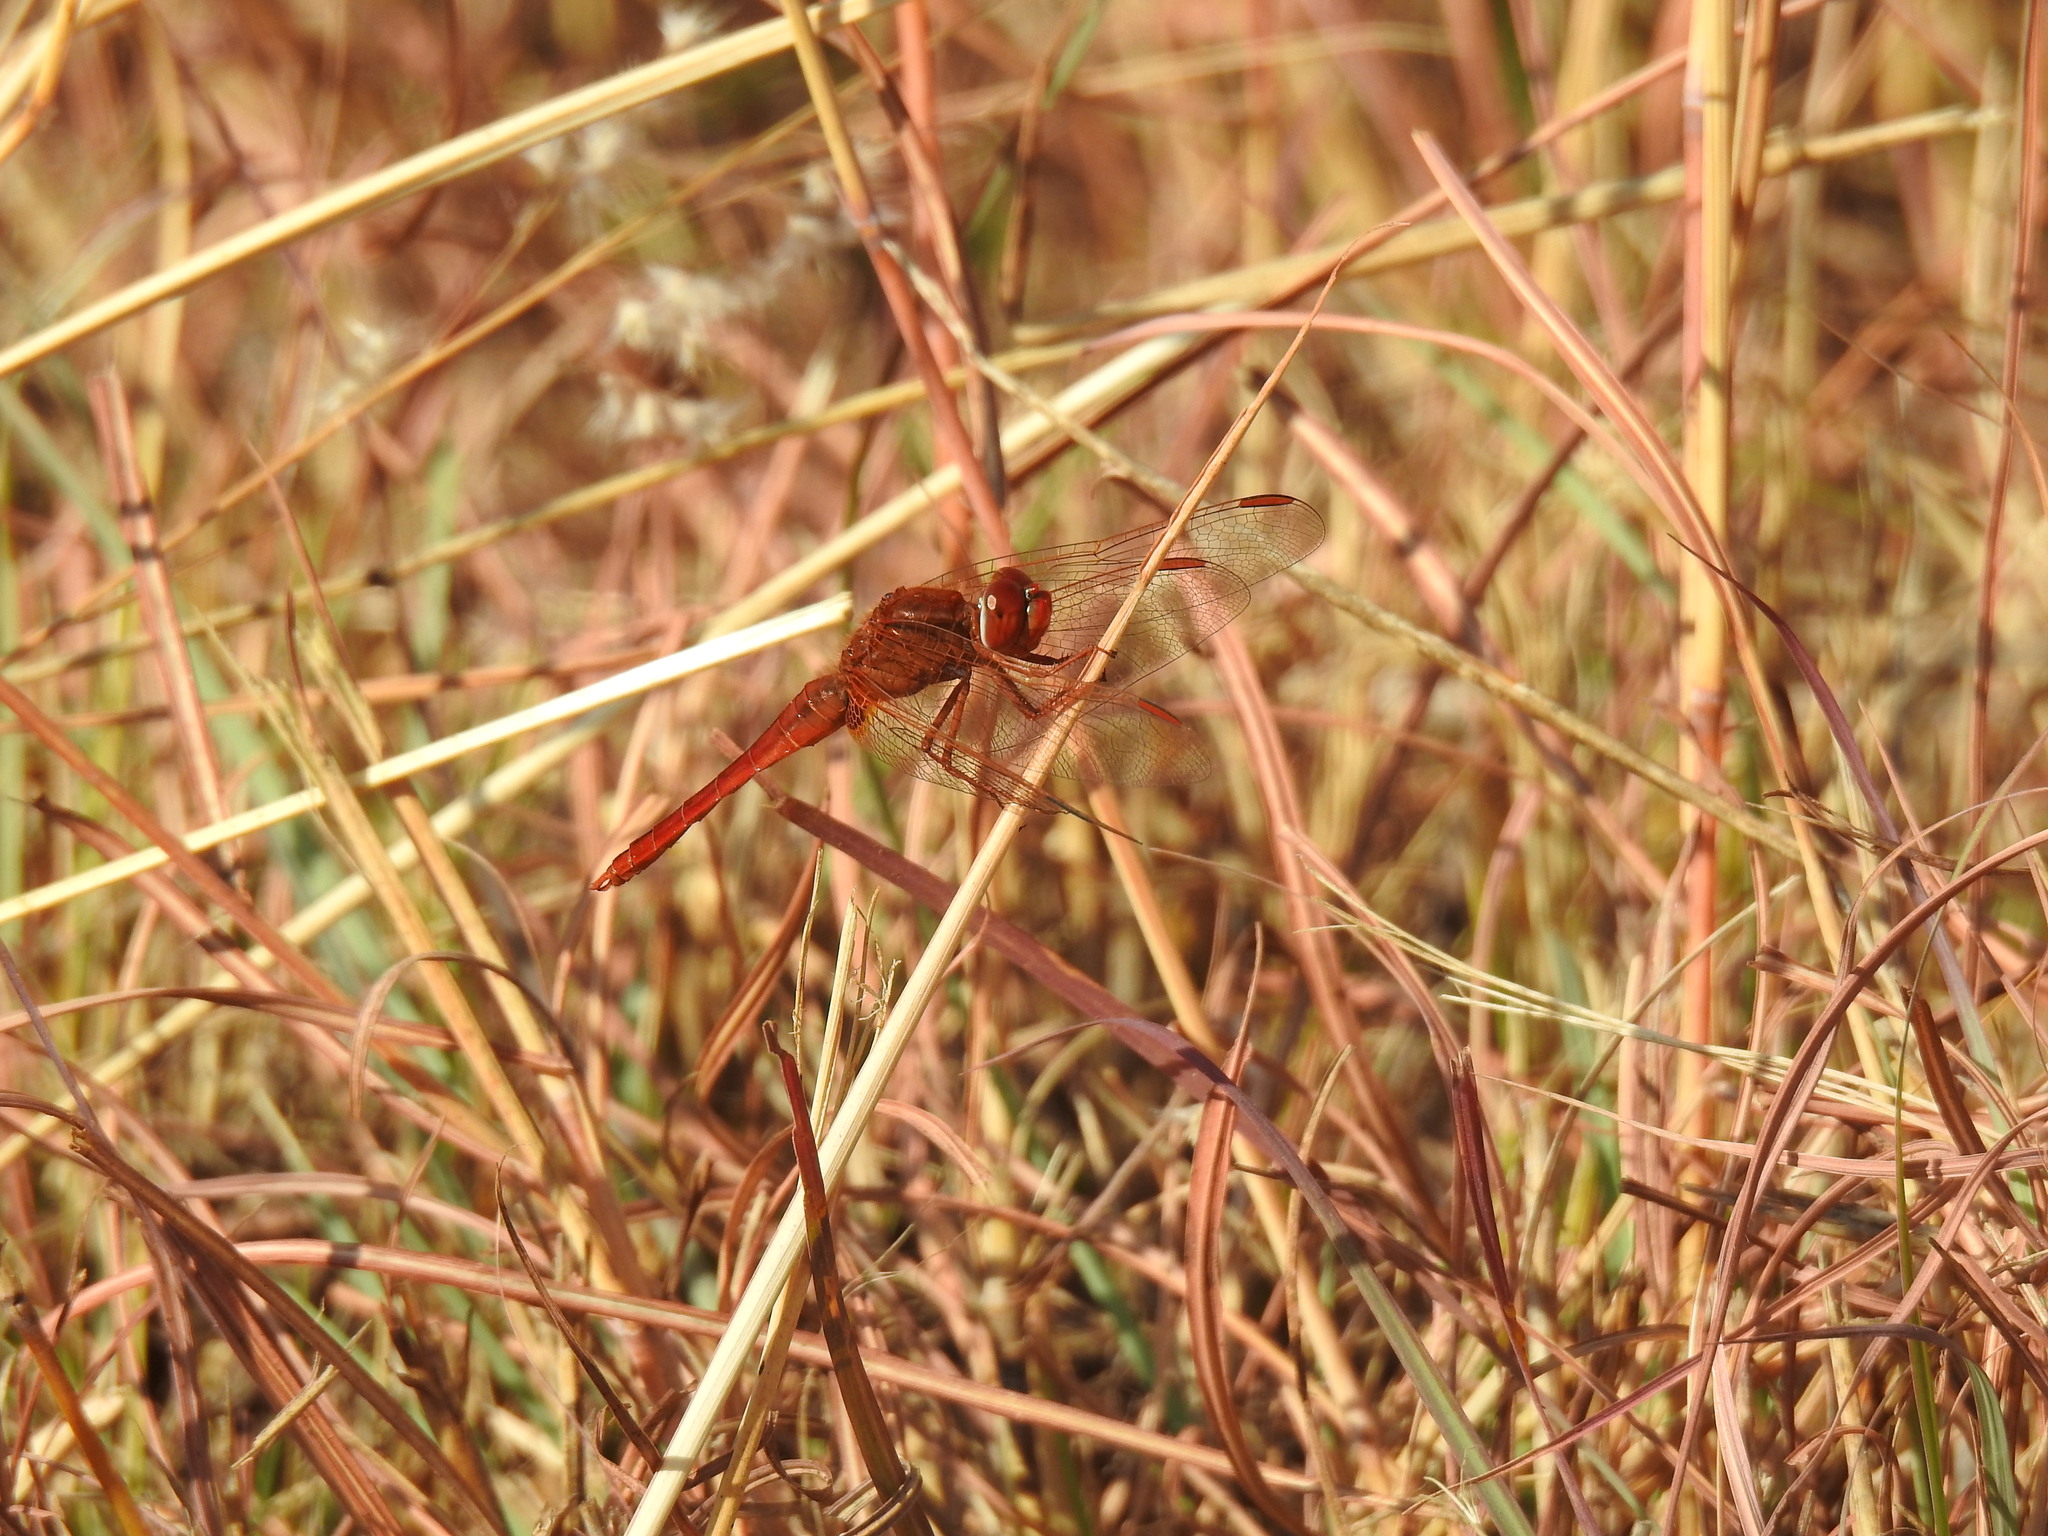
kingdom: Animalia
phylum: Arthropoda
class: Insecta
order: Odonata
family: Libellulidae
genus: Crocothemis
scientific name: Crocothemis erythraea
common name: Scarlet dragonfly
